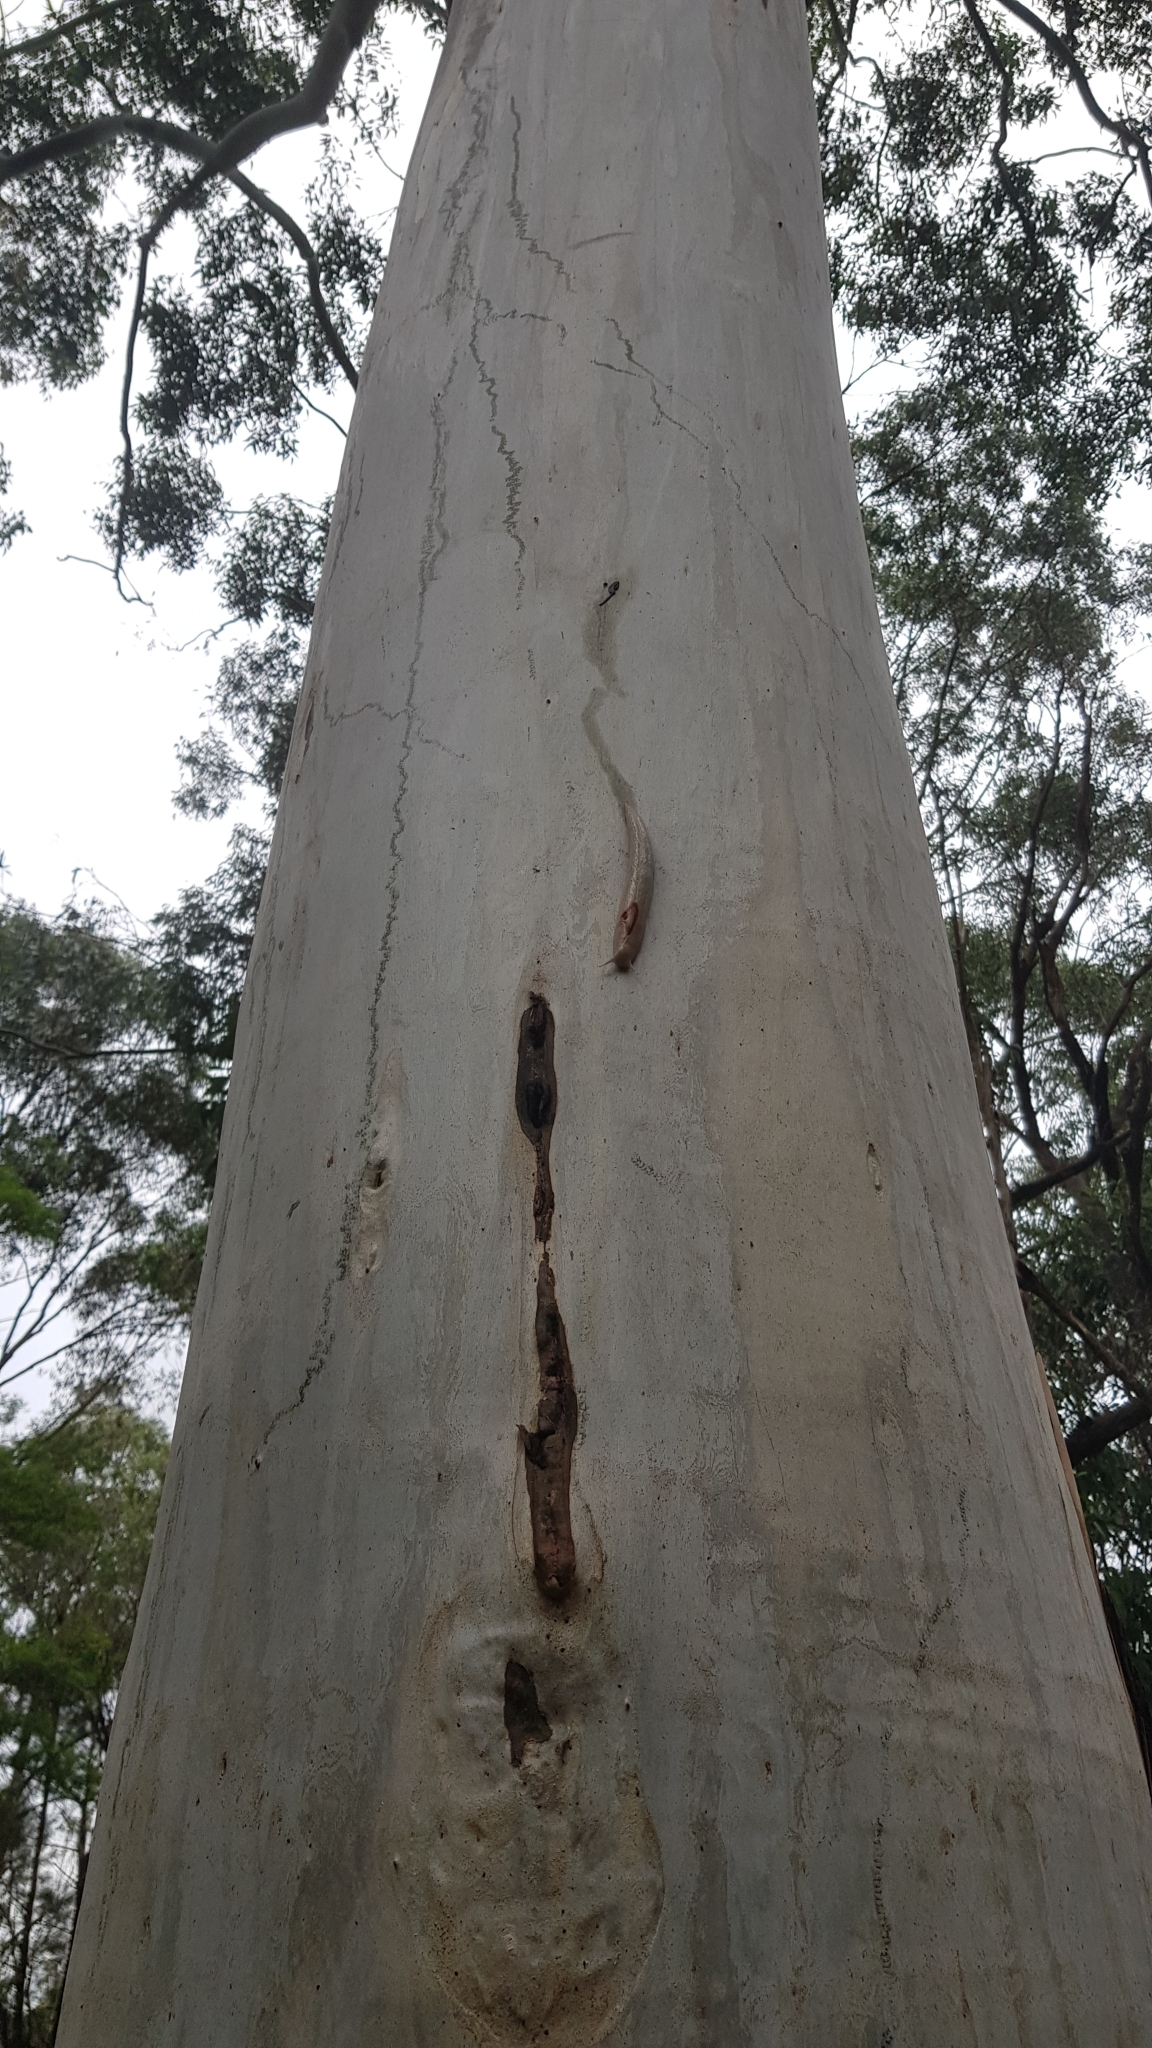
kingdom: Animalia
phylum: Mollusca
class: Gastropoda
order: Stylommatophora
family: Athoracophoridae
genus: Triboniophorus
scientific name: Triboniophorus graeffei
